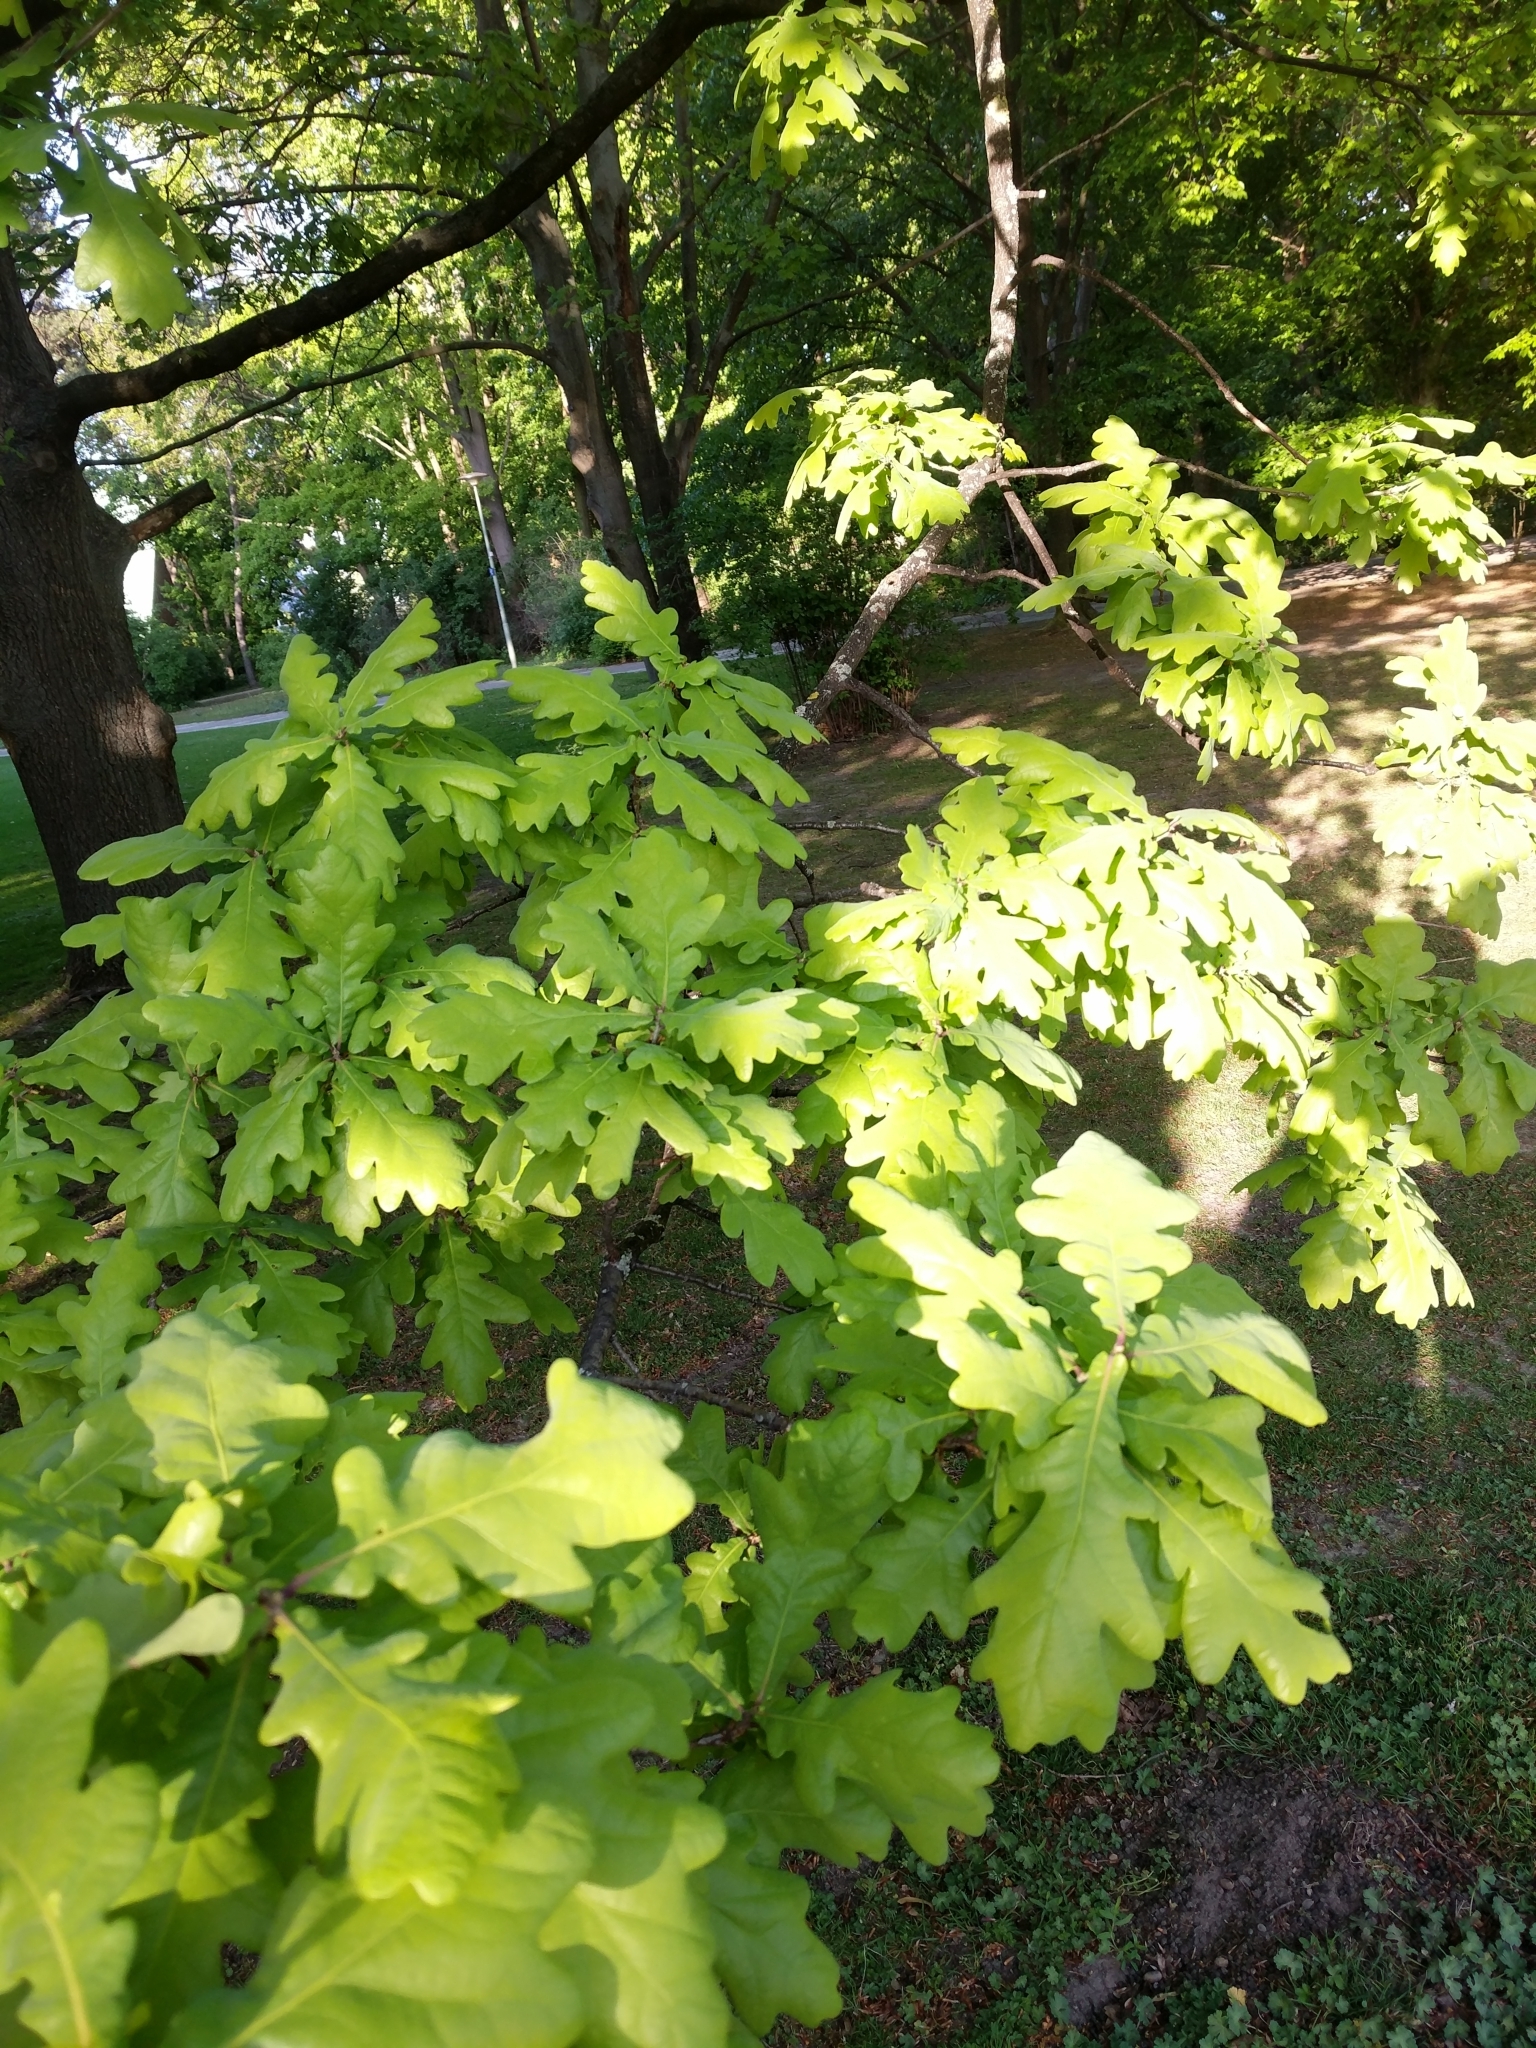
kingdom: Plantae
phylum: Tracheophyta
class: Magnoliopsida
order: Fagales
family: Fagaceae
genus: Quercus
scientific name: Quercus robur
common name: Pedunculate oak
